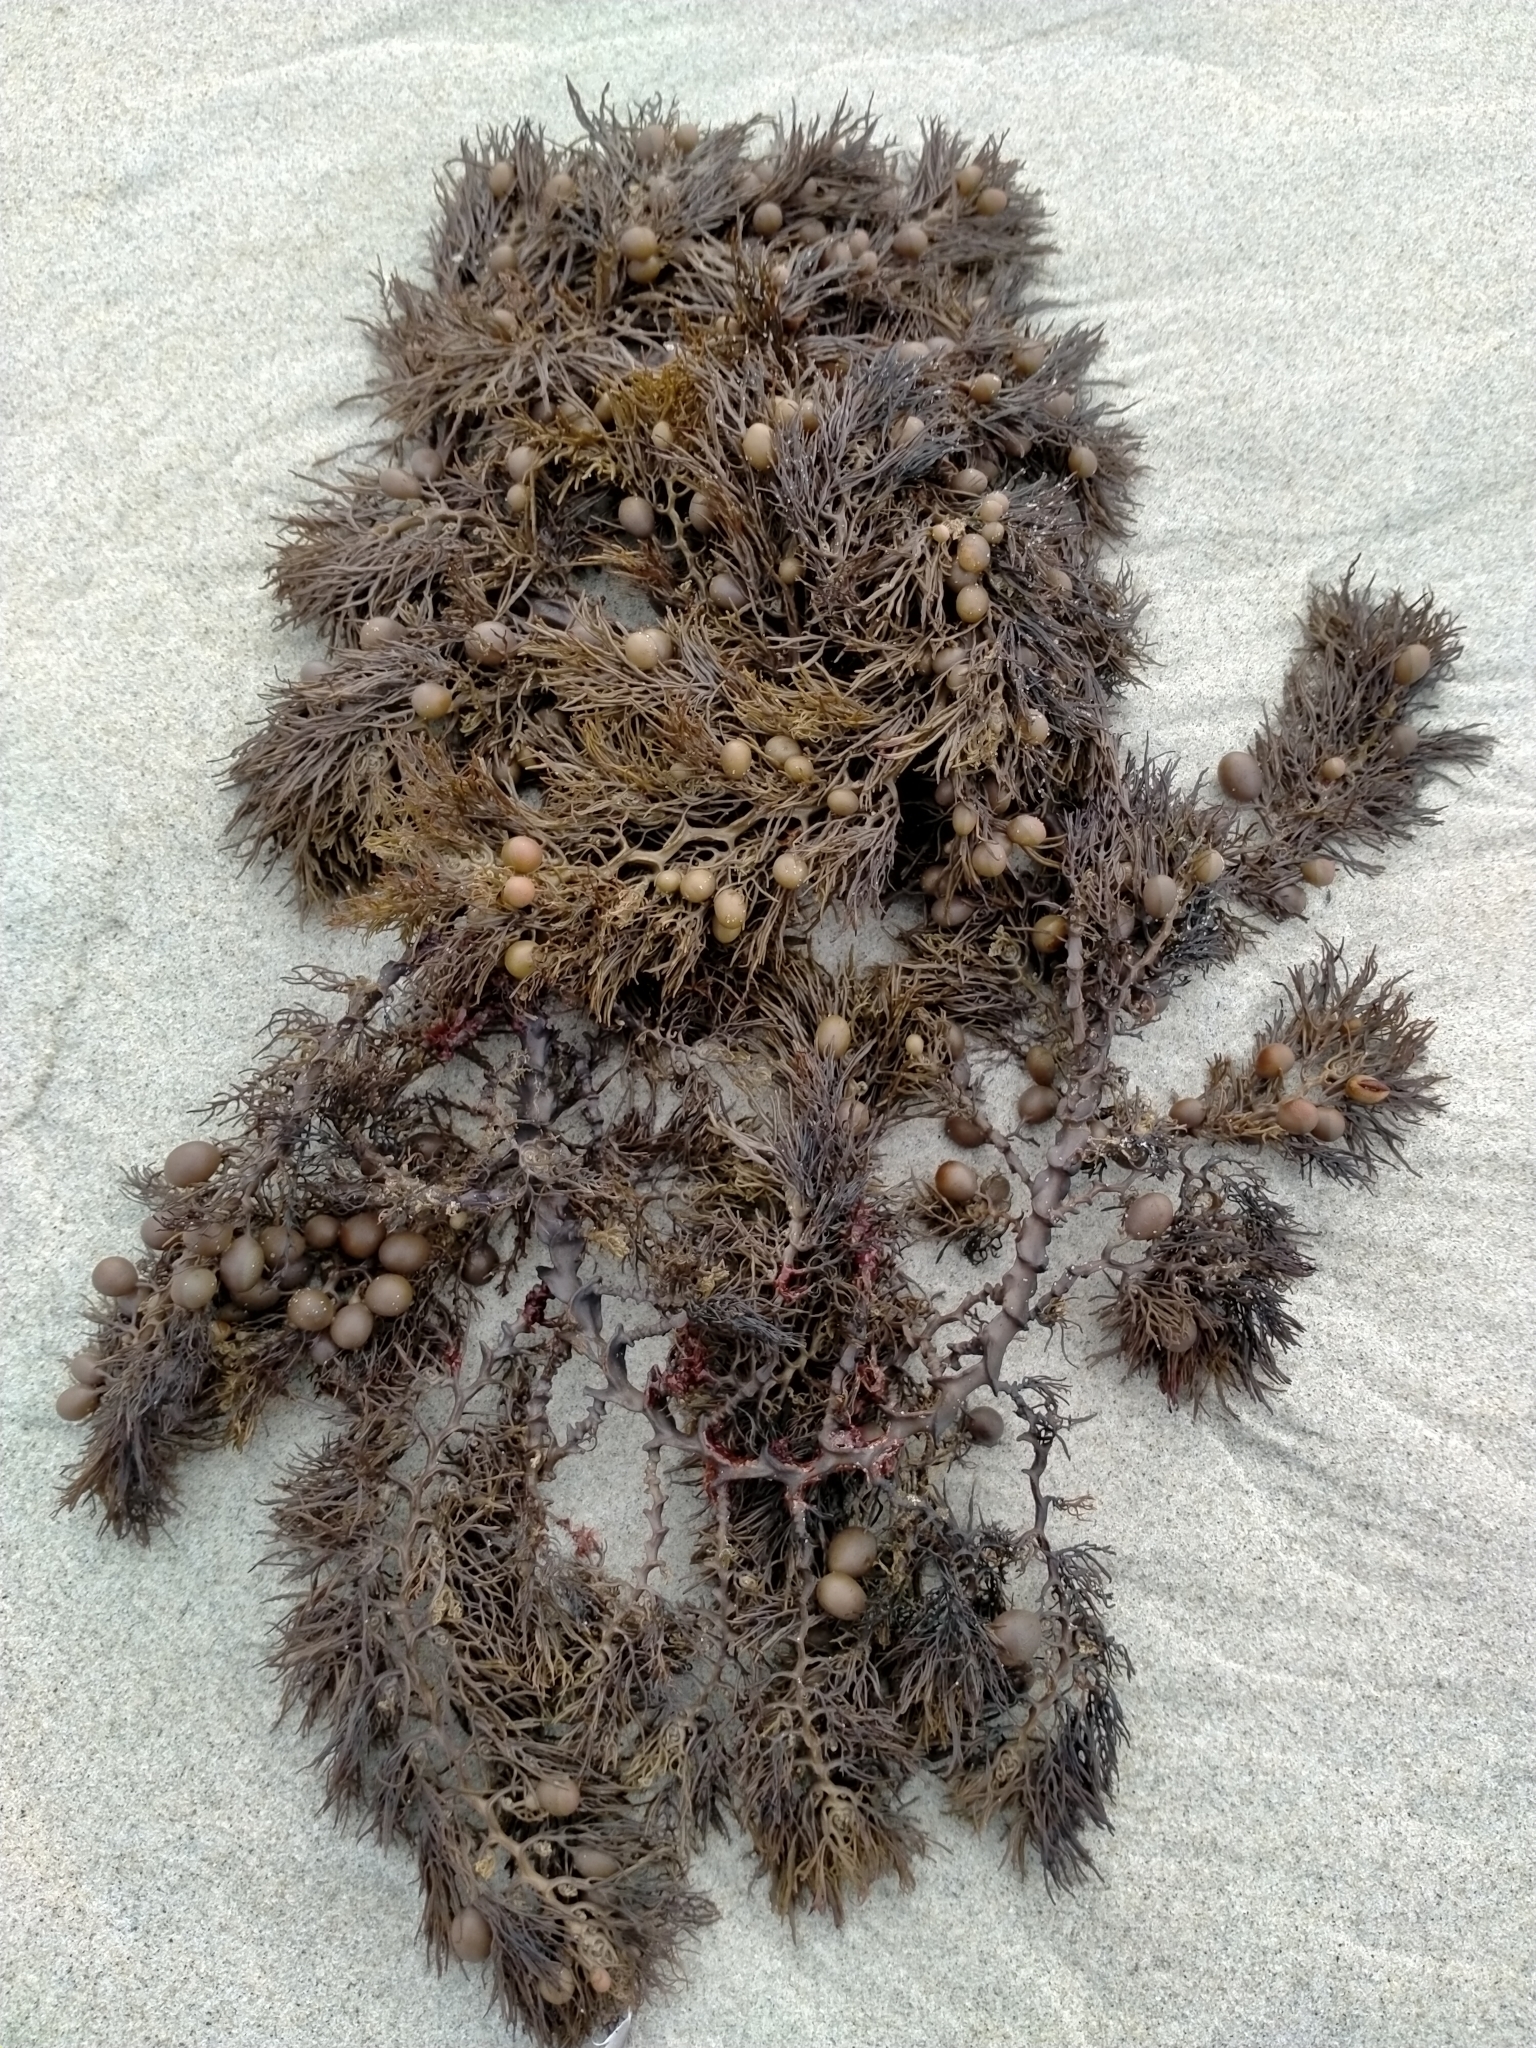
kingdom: Chromista
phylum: Ochrophyta
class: Phaeophyceae
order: Fucales
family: Sargassaceae
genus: Cystophora
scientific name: Cystophora retroflexa
